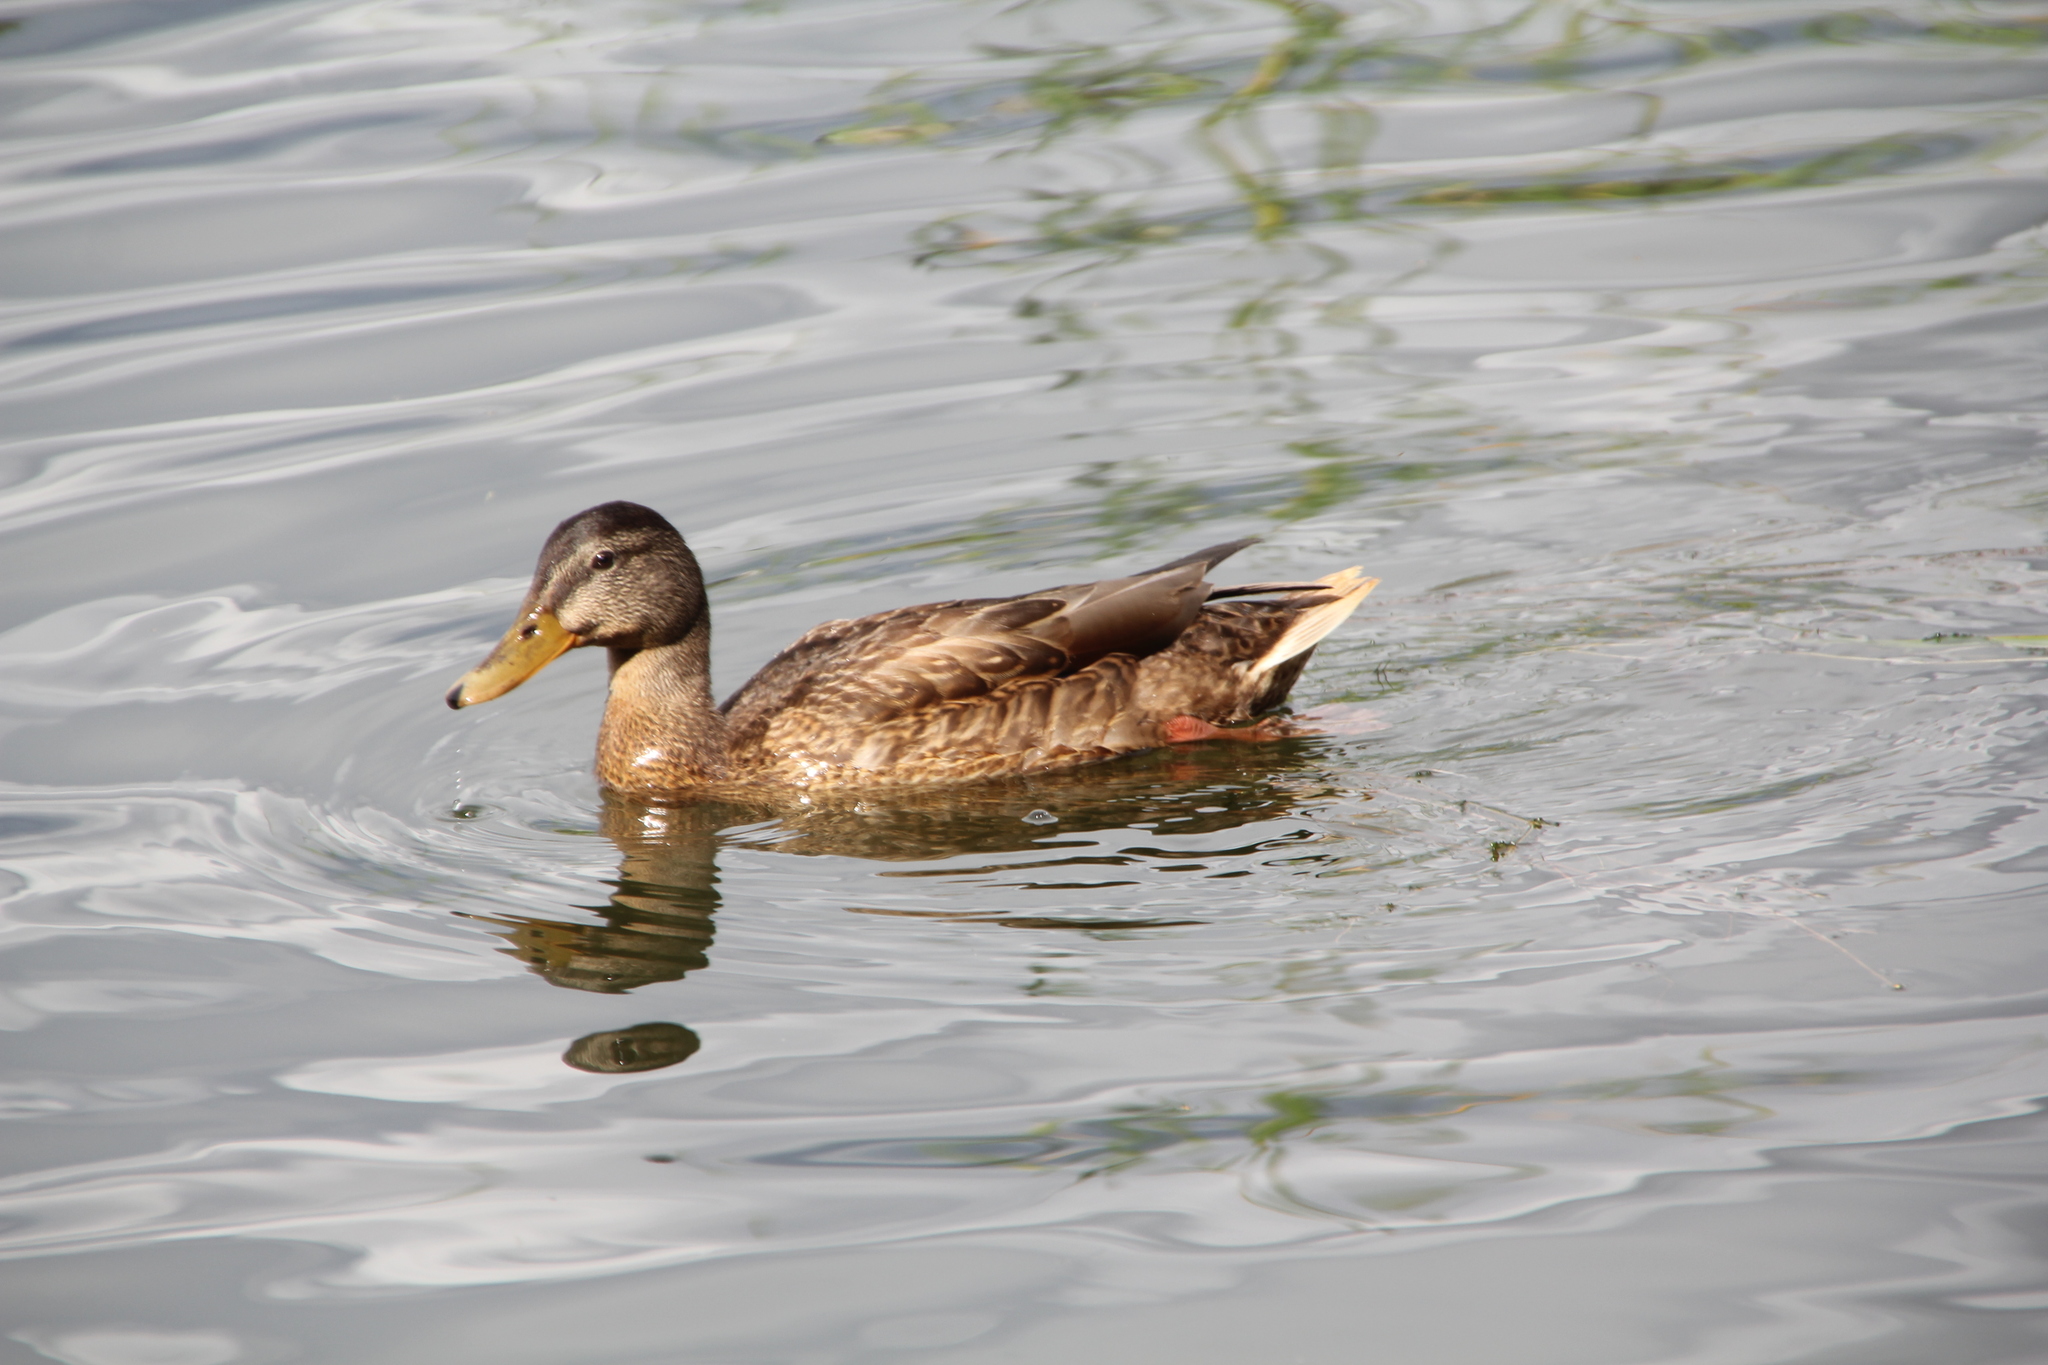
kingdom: Animalia
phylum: Chordata
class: Aves
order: Anseriformes
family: Anatidae
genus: Anas
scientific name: Anas platyrhynchos
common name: Mallard
